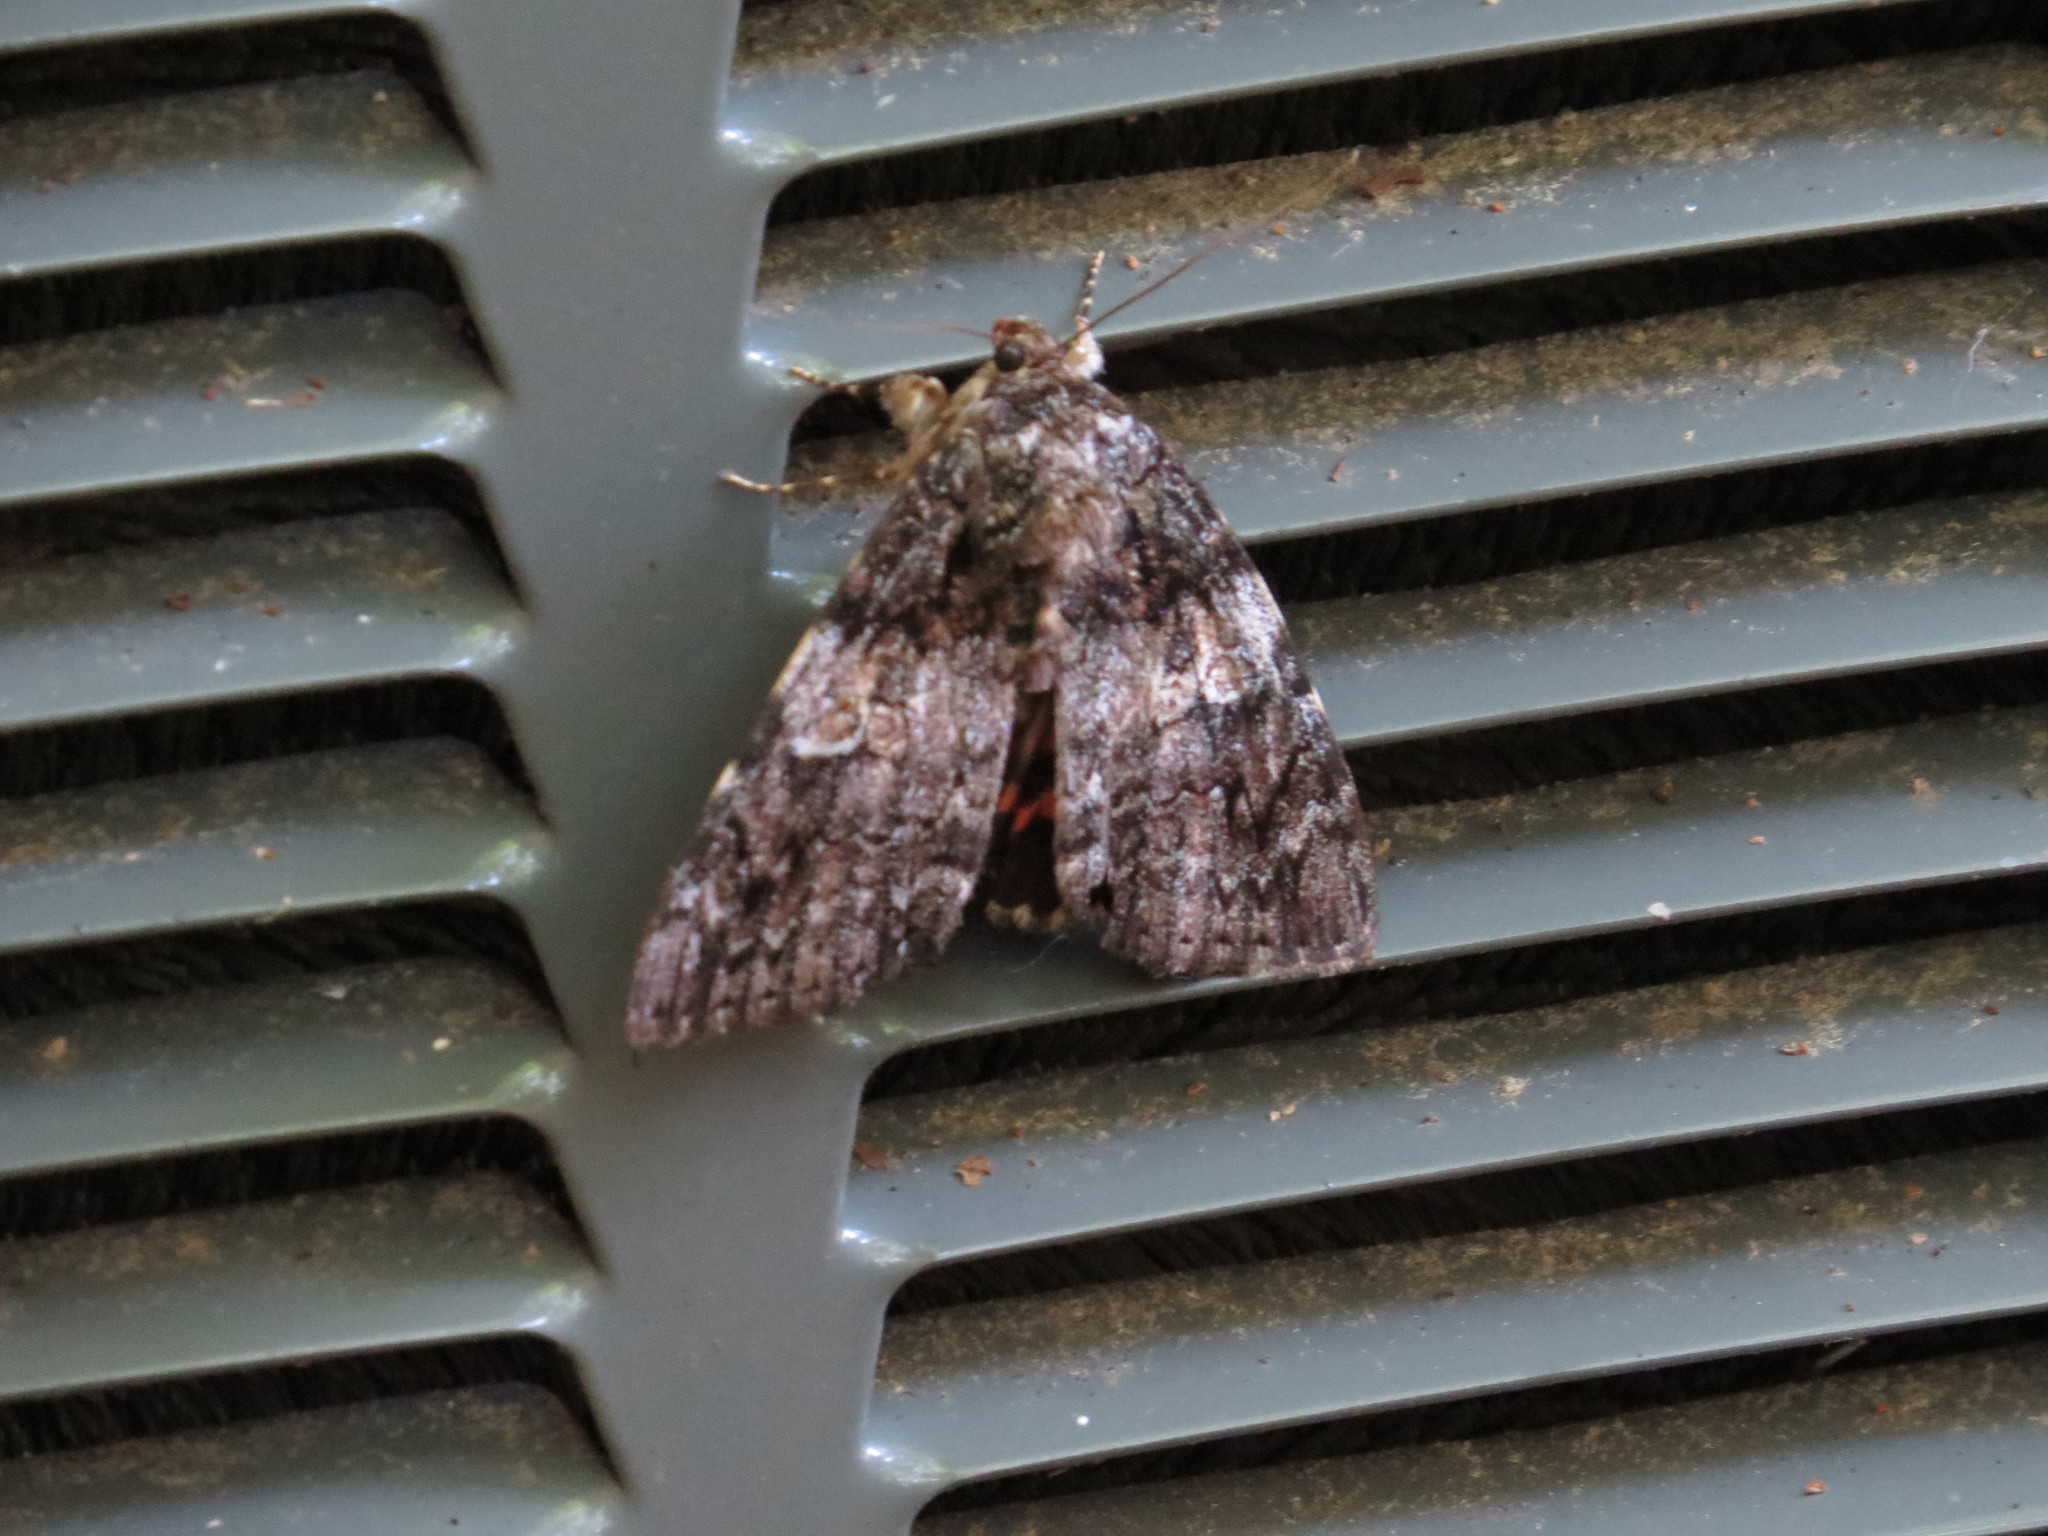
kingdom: Animalia
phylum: Arthropoda
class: Insecta
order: Lepidoptera
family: Erebidae
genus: Catocala
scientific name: Catocala ilia
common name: Ilia underwing
